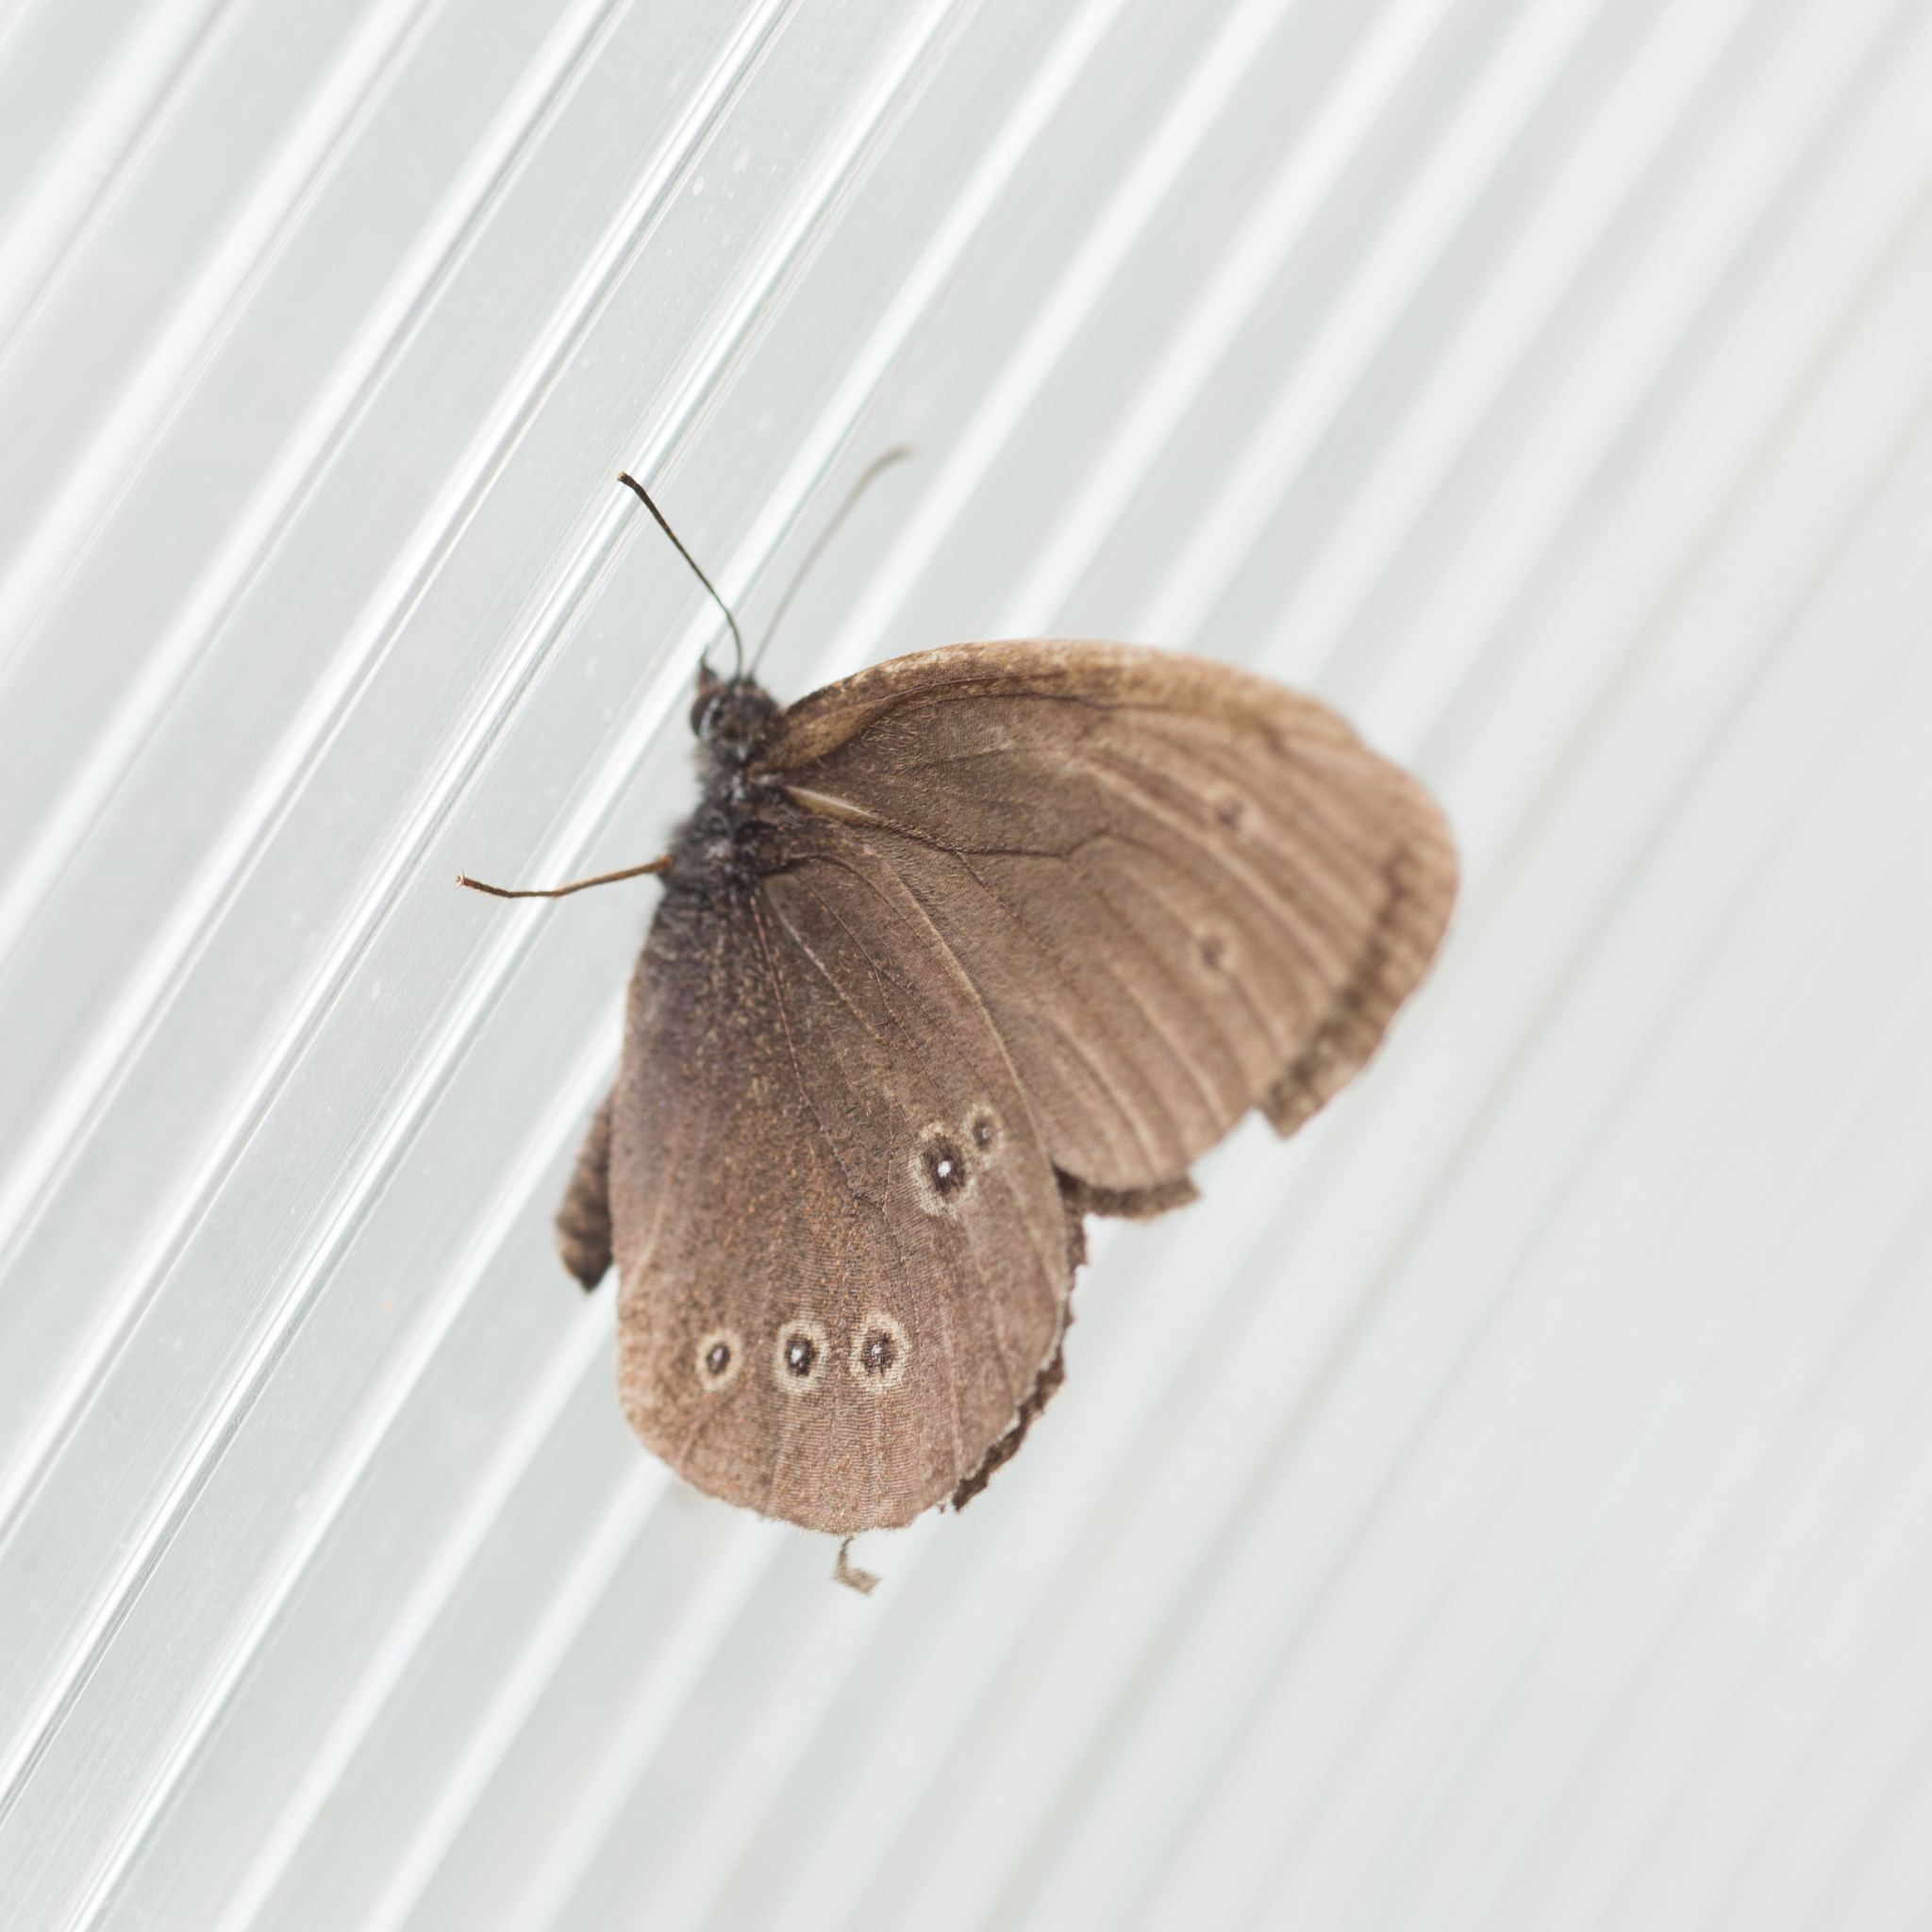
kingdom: Animalia
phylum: Arthropoda
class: Insecta
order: Lepidoptera
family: Nymphalidae
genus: Aphantopus
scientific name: Aphantopus hyperantus
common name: Ringlet
